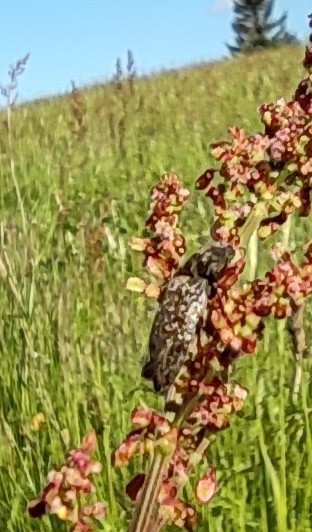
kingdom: Animalia
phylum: Arthropoda
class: Insecta
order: Coleoptera
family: Elateridae
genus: Agrypnus
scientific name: Agrypnus murinus
